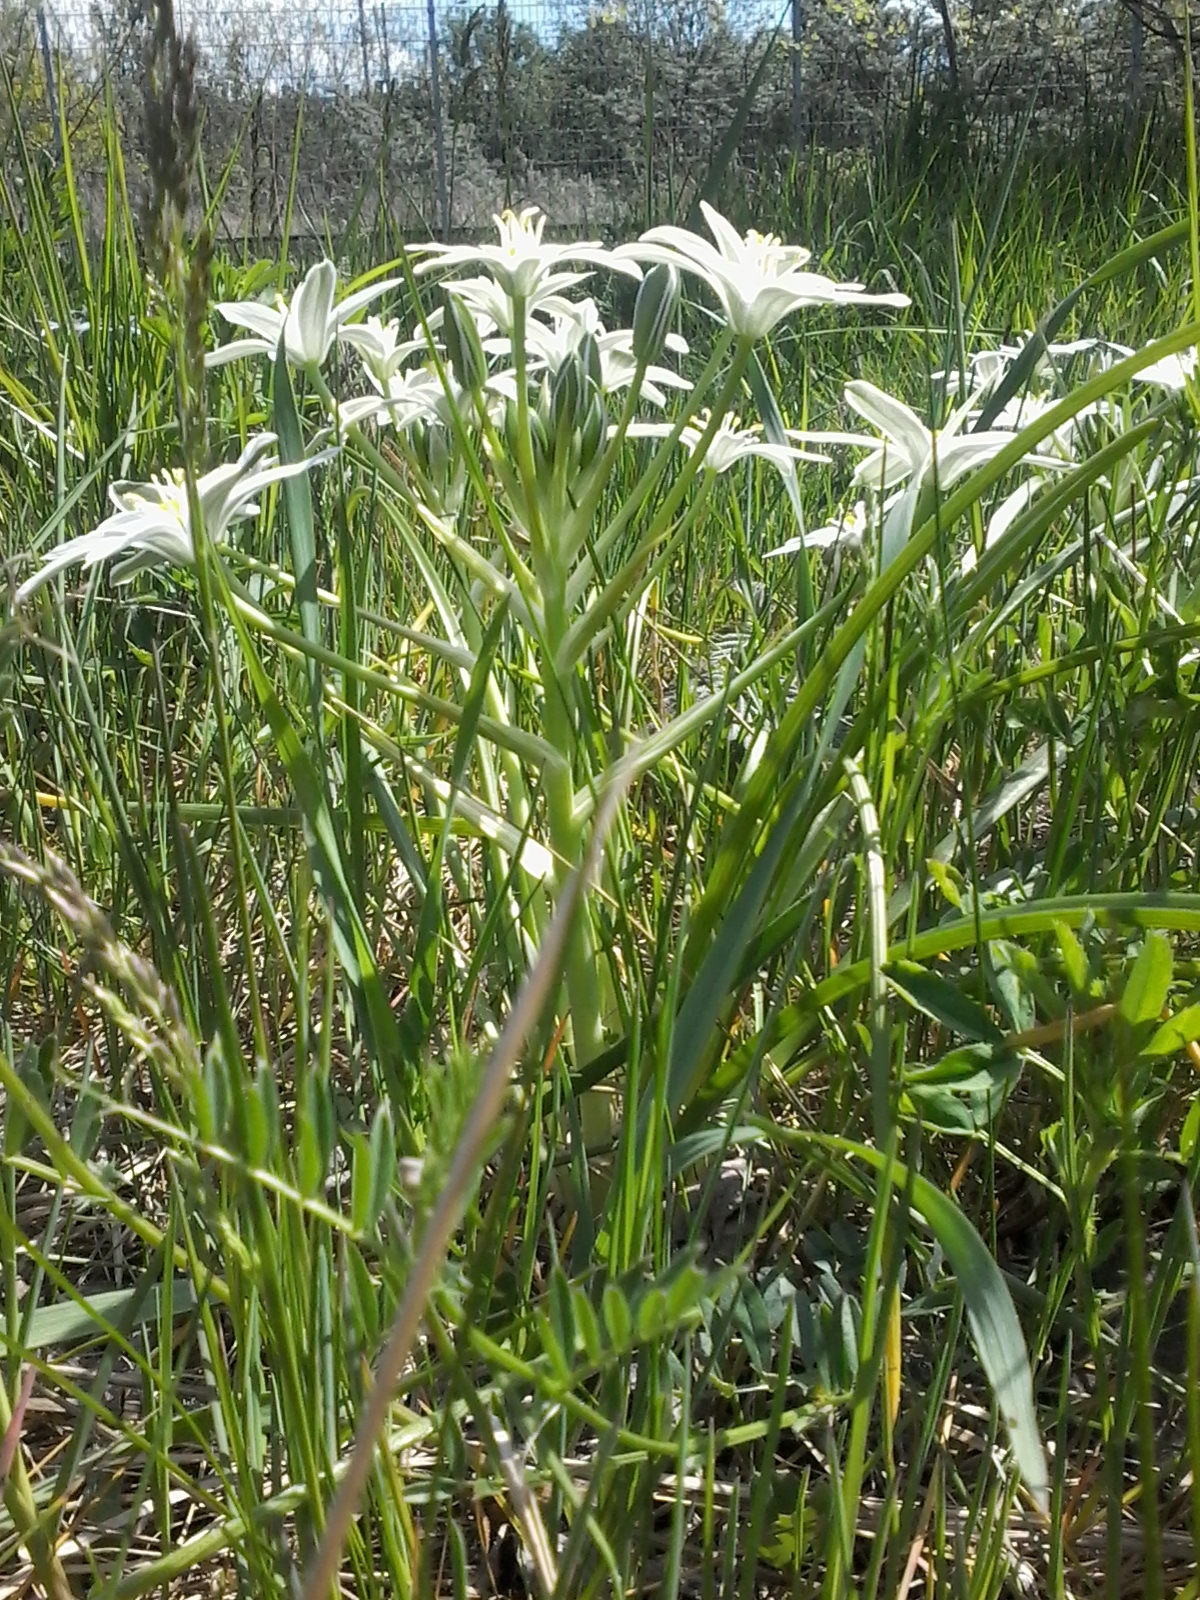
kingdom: Plantae
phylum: Tracheophyta
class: Liliopsida
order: Asparagales
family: Asparagaceae
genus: Ornithogalum
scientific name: Ornithogalum umbellatum
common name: Garden star-of-bethlehem
